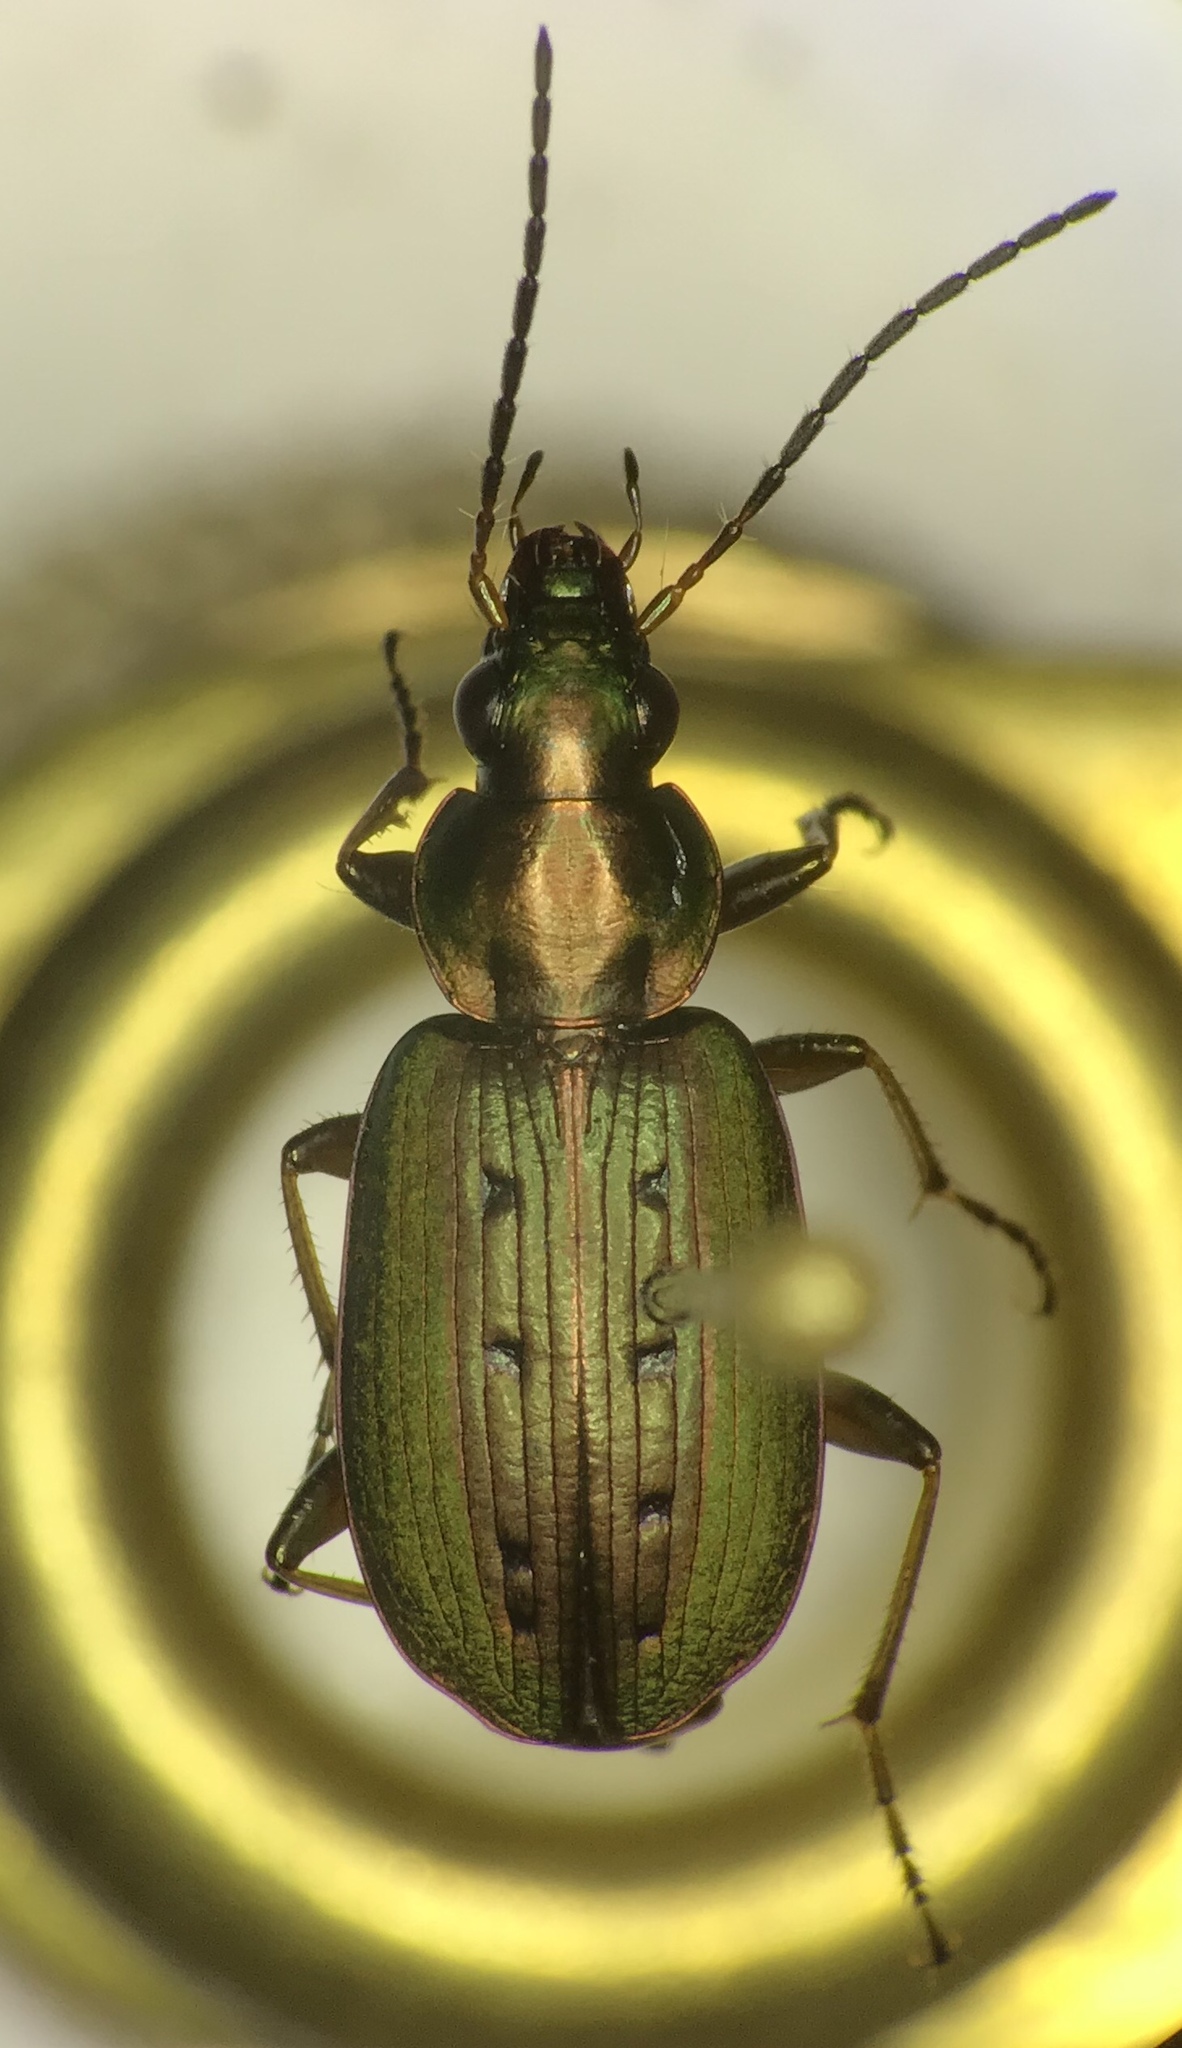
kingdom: Animalia
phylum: Arthropoda
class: Insecta
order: Coleoptera
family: Carabidae
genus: Agonum
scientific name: Agonum octopunctatum
